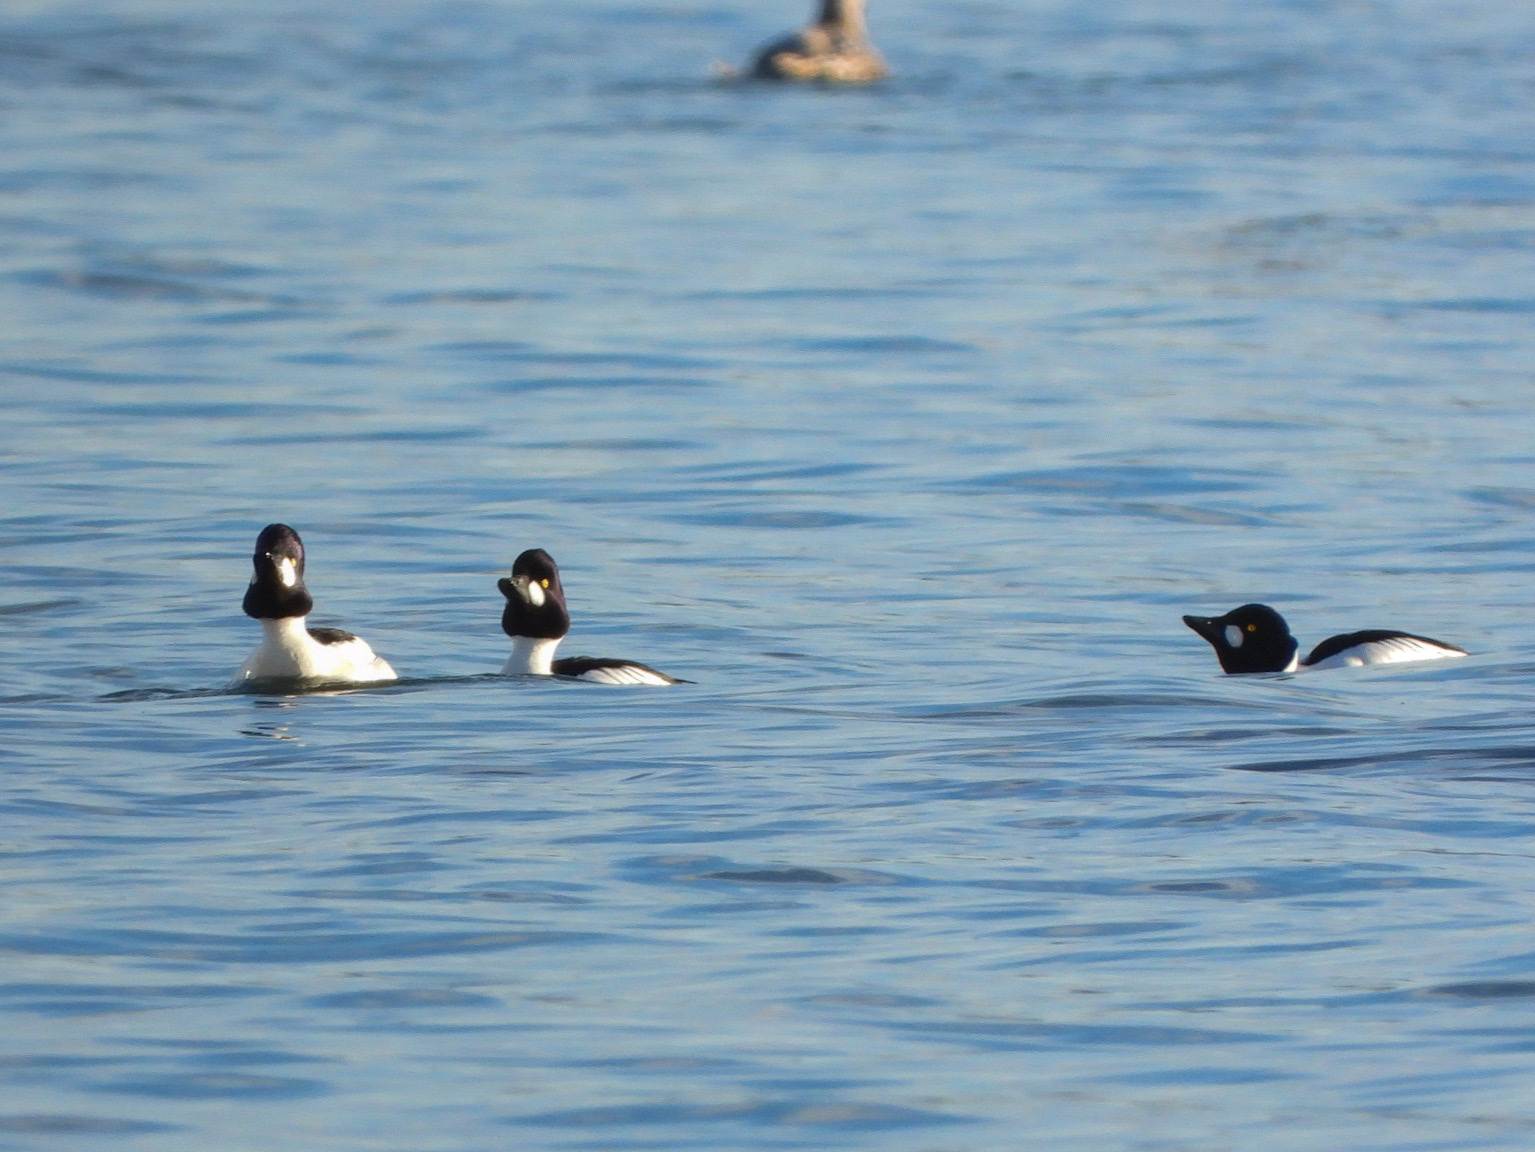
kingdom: Animalia
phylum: Chordata
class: Aves
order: Anseriformes
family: Anatidae
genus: Bucephala
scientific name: Bucephala clangula
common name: Common goldeneye
